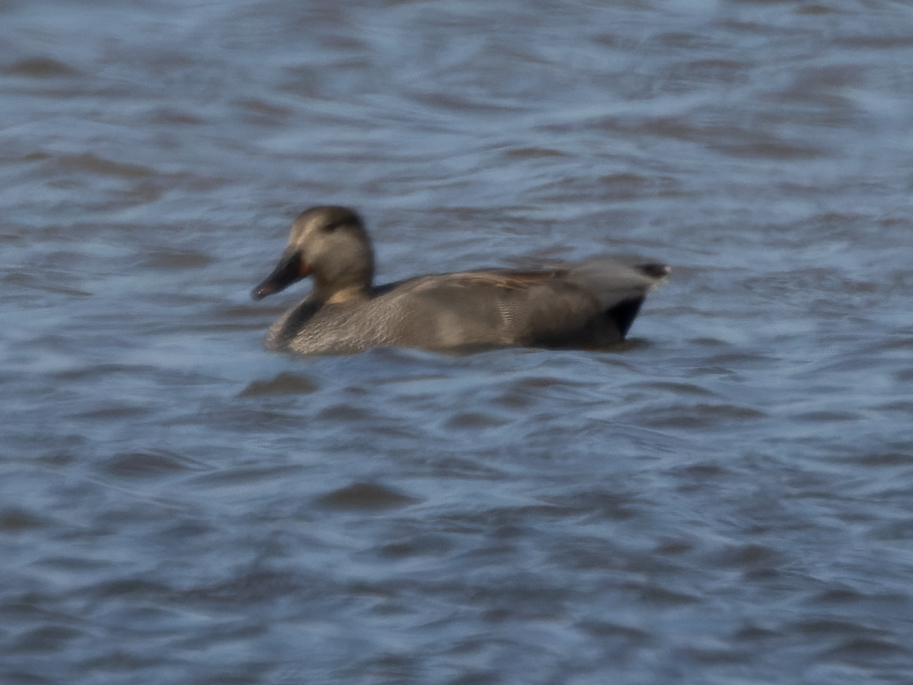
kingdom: Animalia
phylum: Chordata
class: Aves
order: Anseriformes
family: Anatidae
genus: Mareca
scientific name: Mareca strepera
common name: Gadwall
